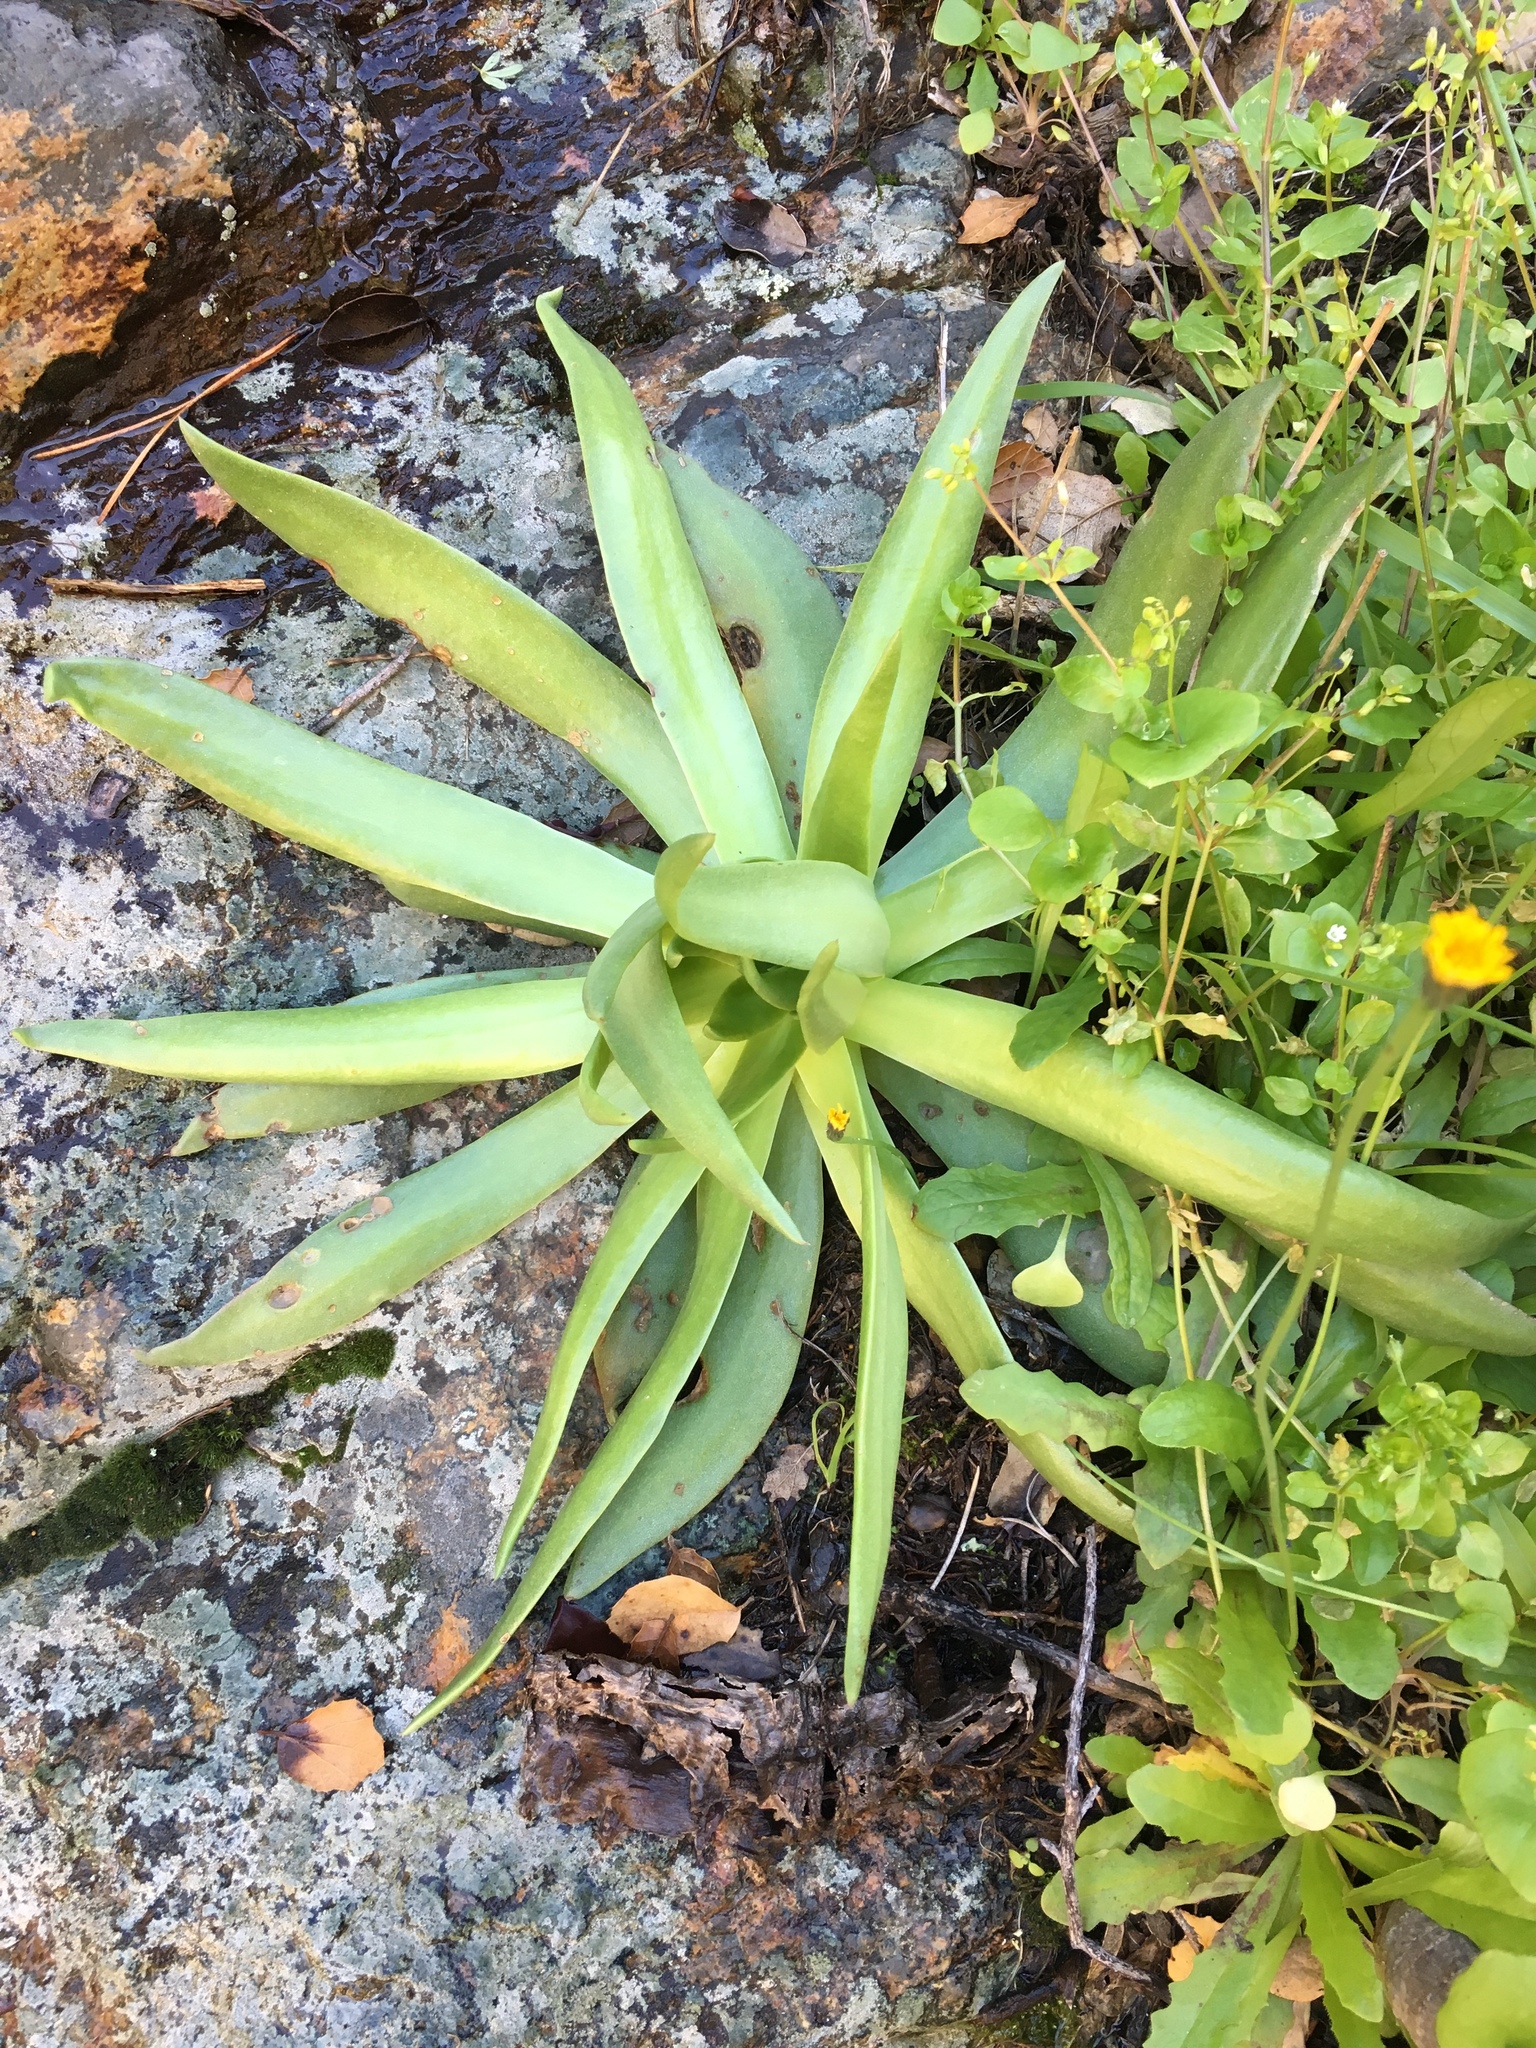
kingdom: Plantae
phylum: Tracheophyta
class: Magnoliopsida
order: Saxifragales
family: Crassulaceae
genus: Dudleya
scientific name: Dudleya candelabrum
